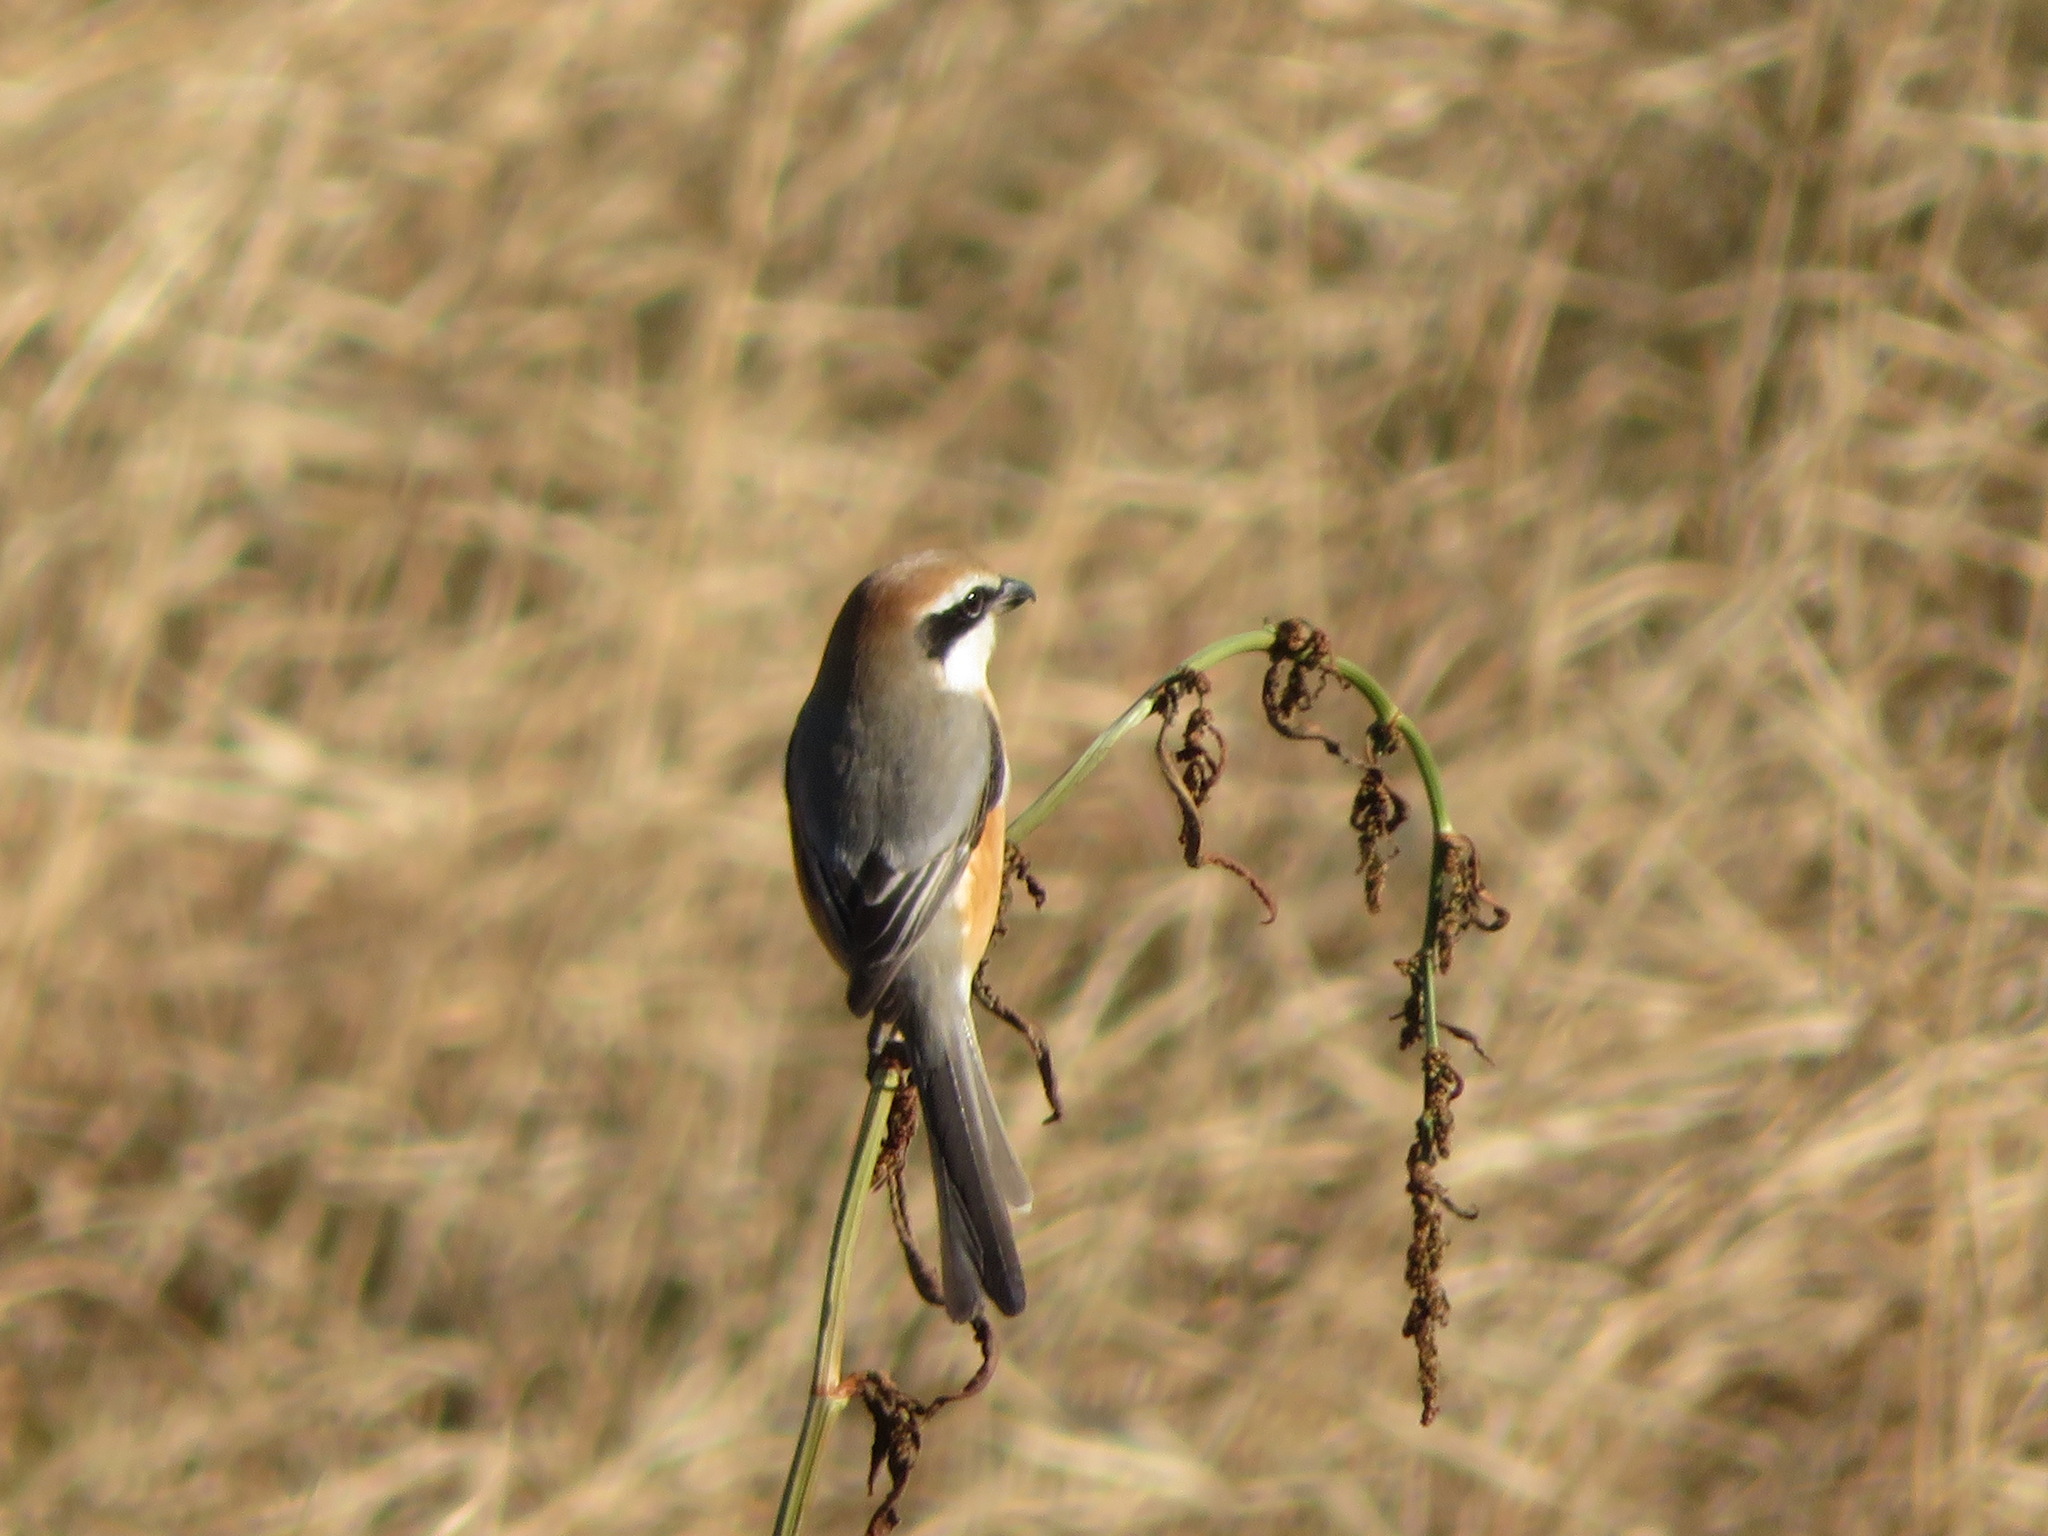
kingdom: Animalia
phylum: Chordata
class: Aves
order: Passeriformes
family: Laniidae
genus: Lanius
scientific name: Lanius bucephalus
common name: Bull-headed shrike
